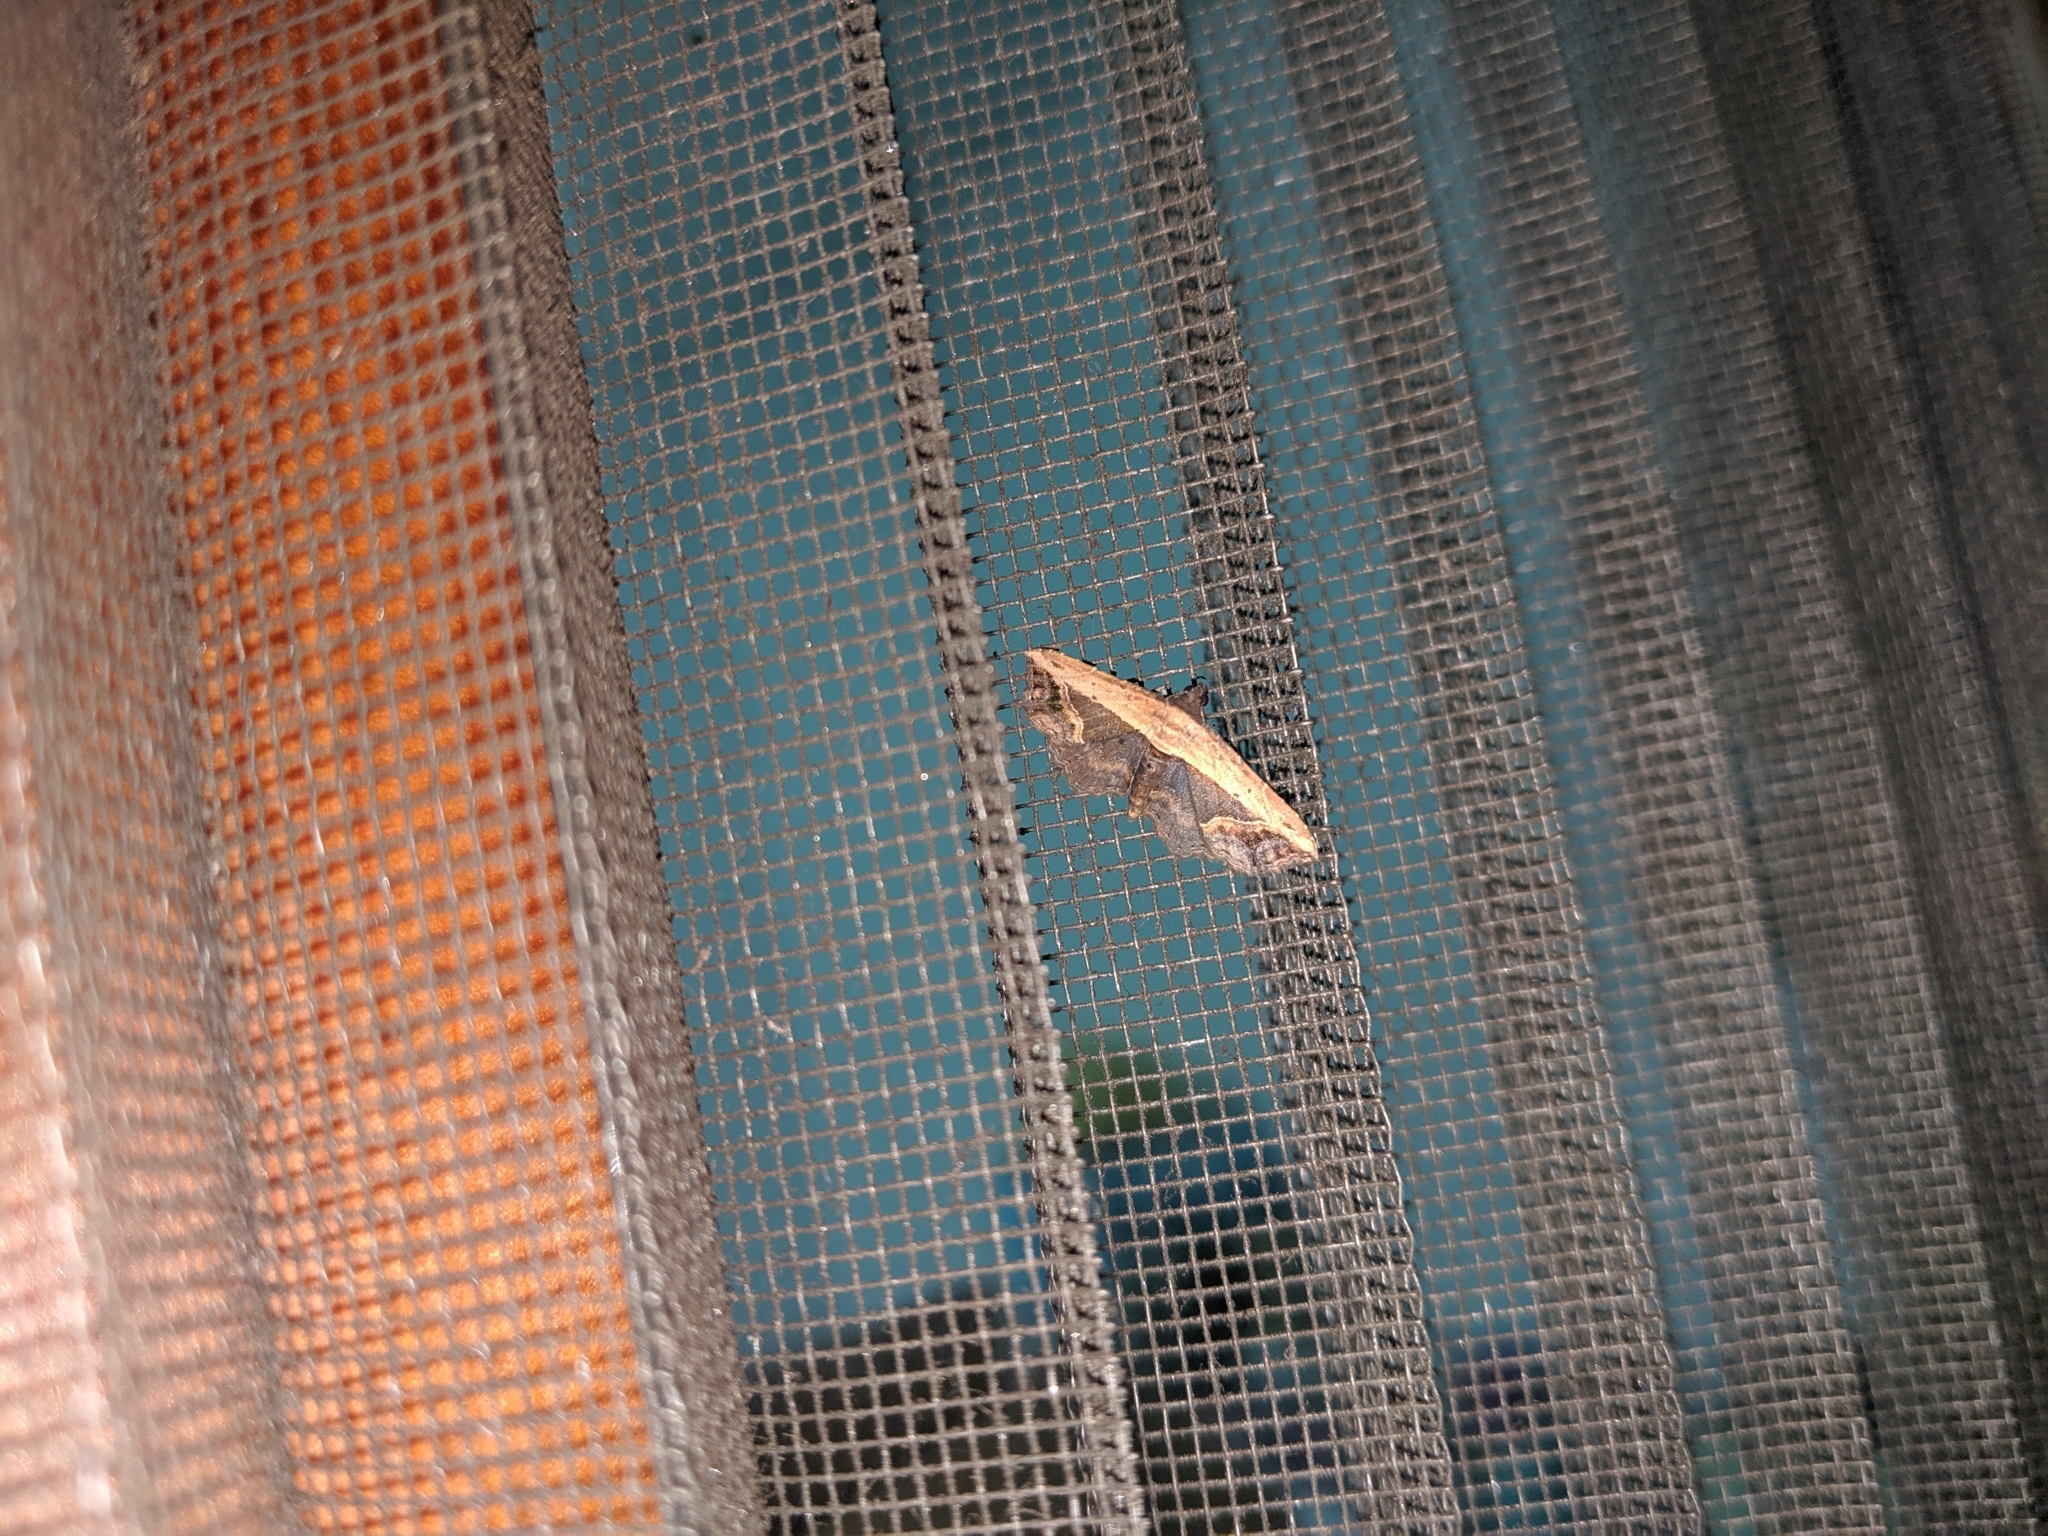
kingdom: Animalia
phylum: Arthropoda
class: Insecta
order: Lepidoptera
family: Noctuidae
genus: Ataboruza
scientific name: Ataboruza stragulata
